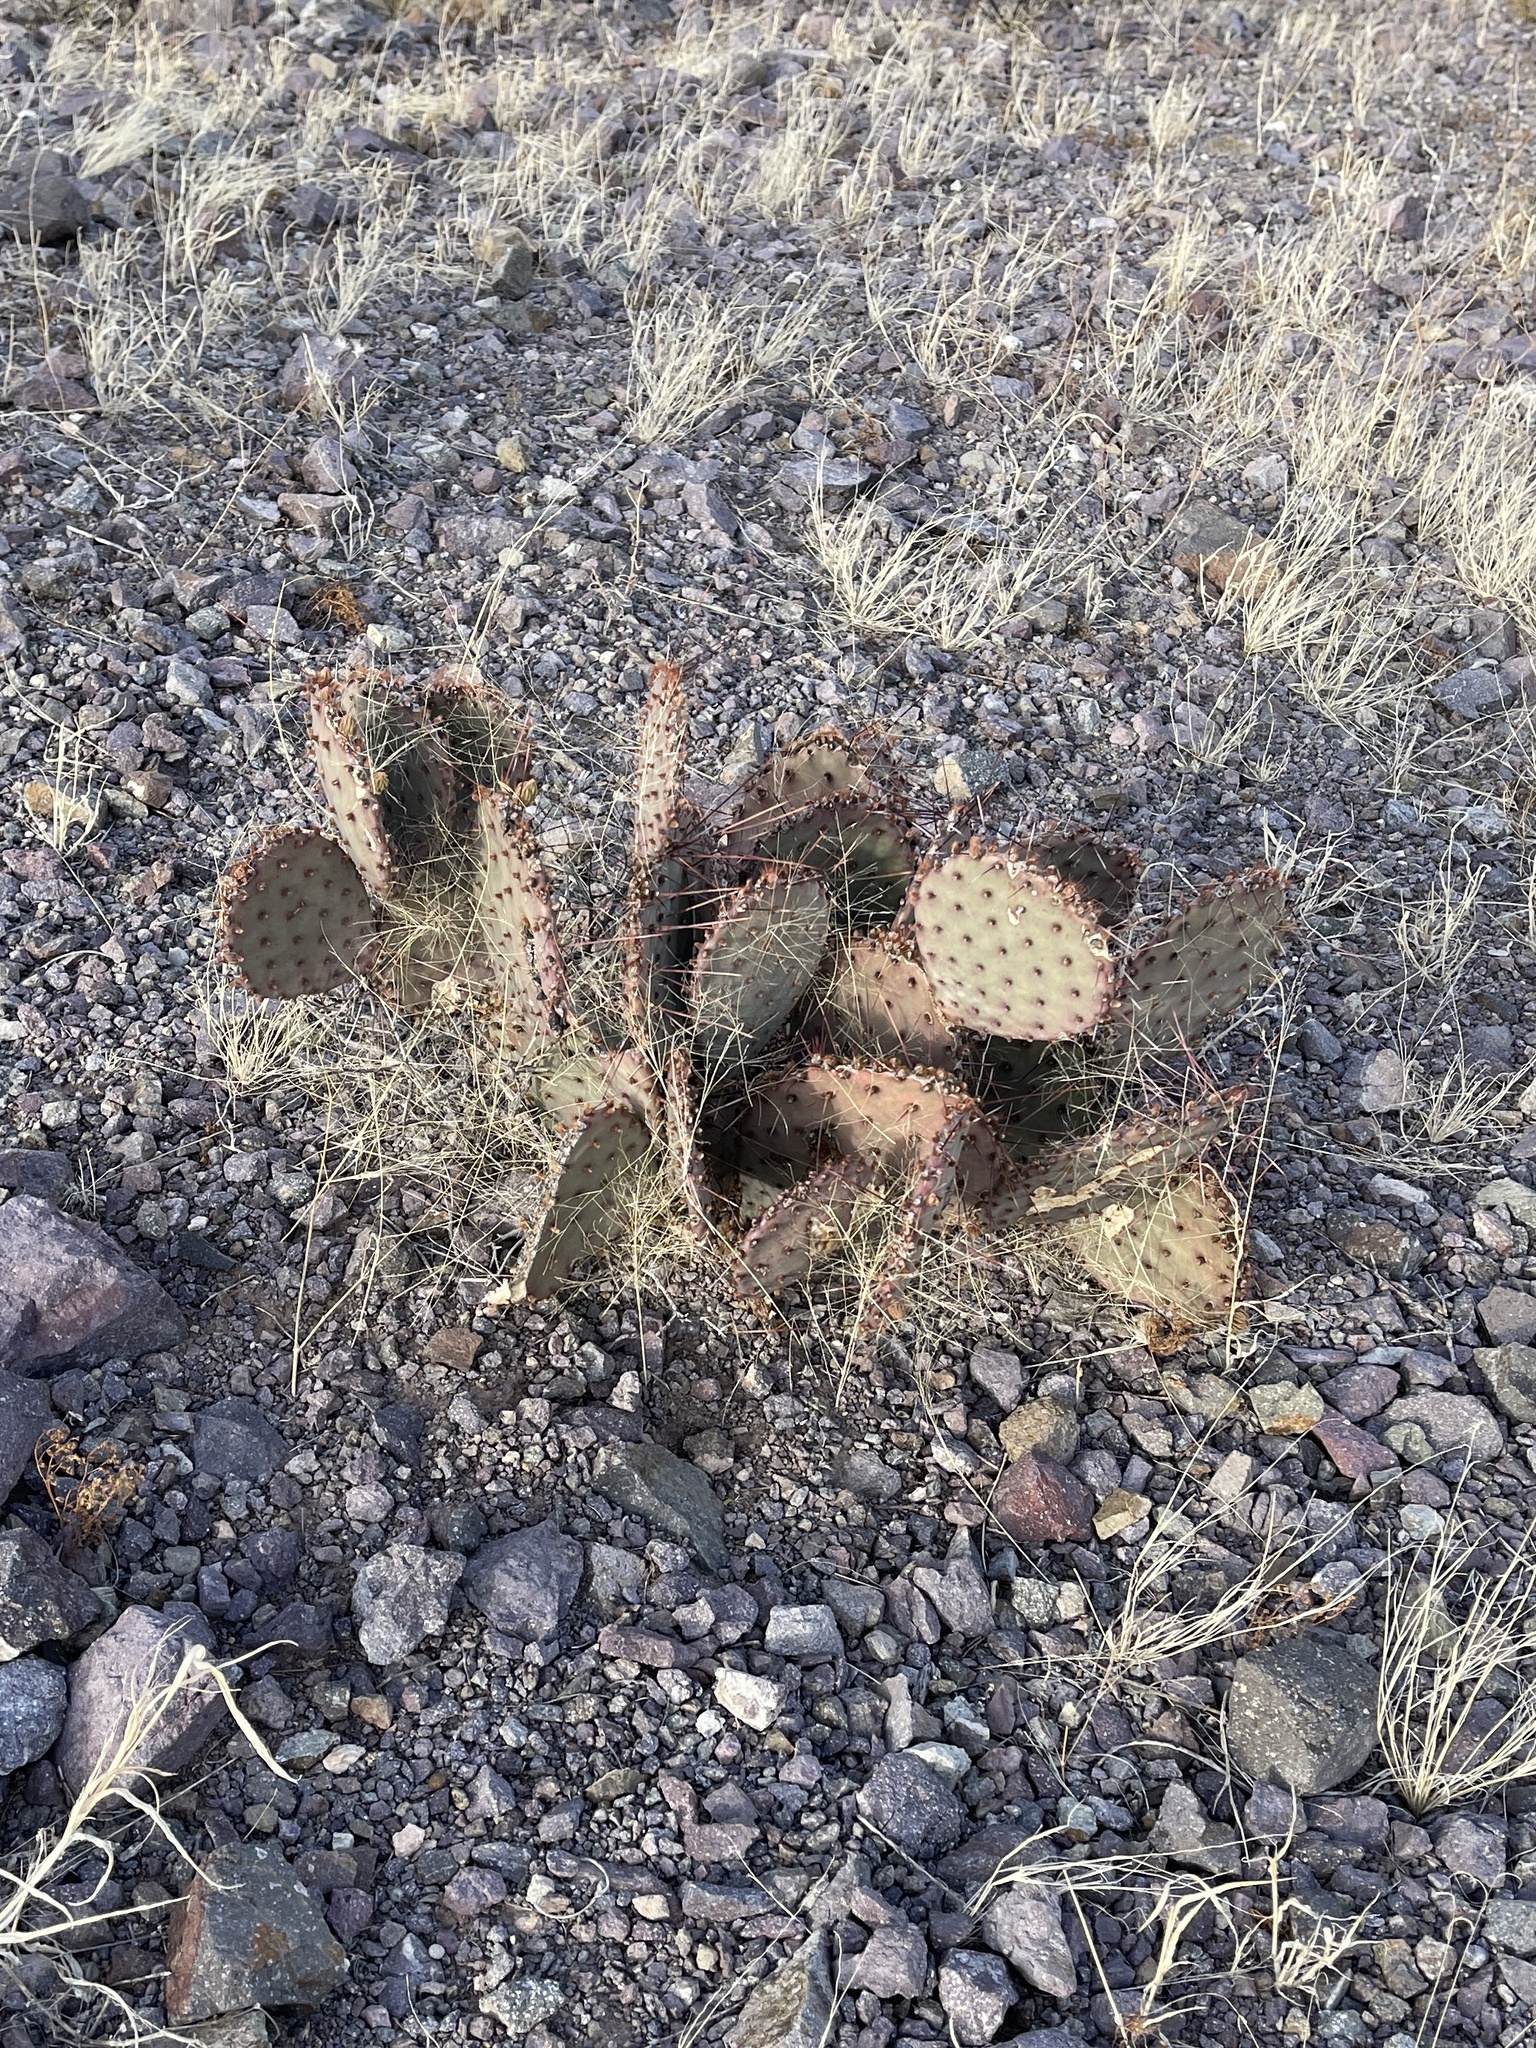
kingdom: Plantae
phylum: Tracheophyta
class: Magnoliopsida
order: Caryophyllales
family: Cactaceae
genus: Opuntia
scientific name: Opuntia macrocentra
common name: Purple prickly-pear
